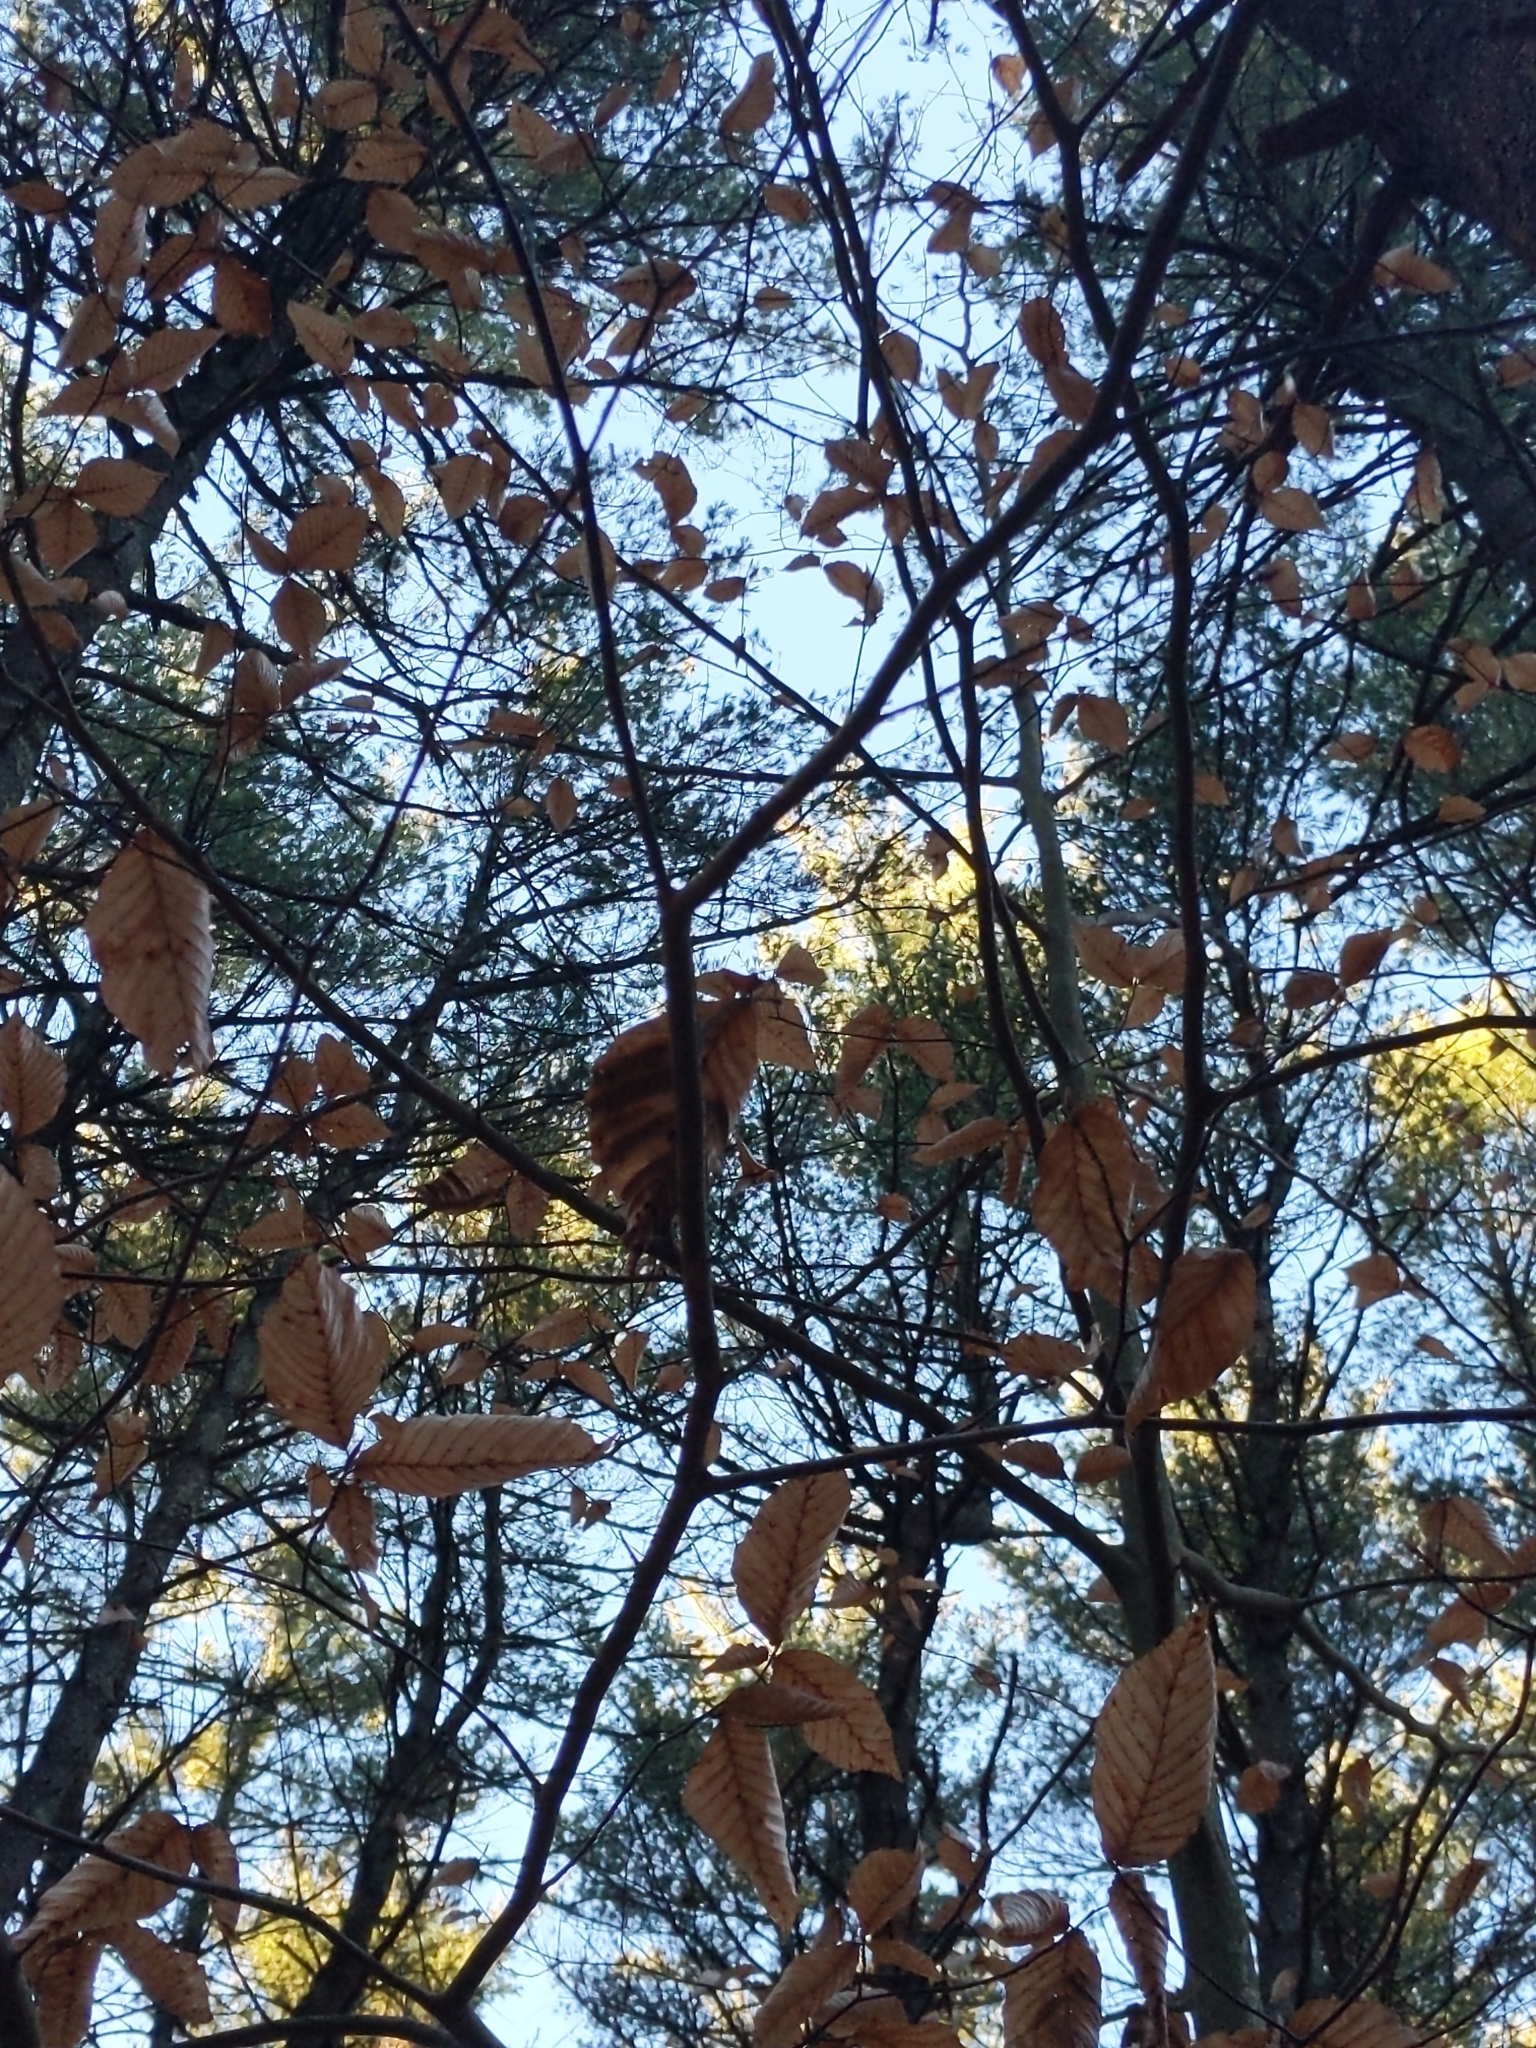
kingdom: Animalia
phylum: Nematoda
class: Chromadorea
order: Rhabditida
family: Anguinidae
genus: Litylenchus
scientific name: Litylenchus crenatae
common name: Beech leaf disease
